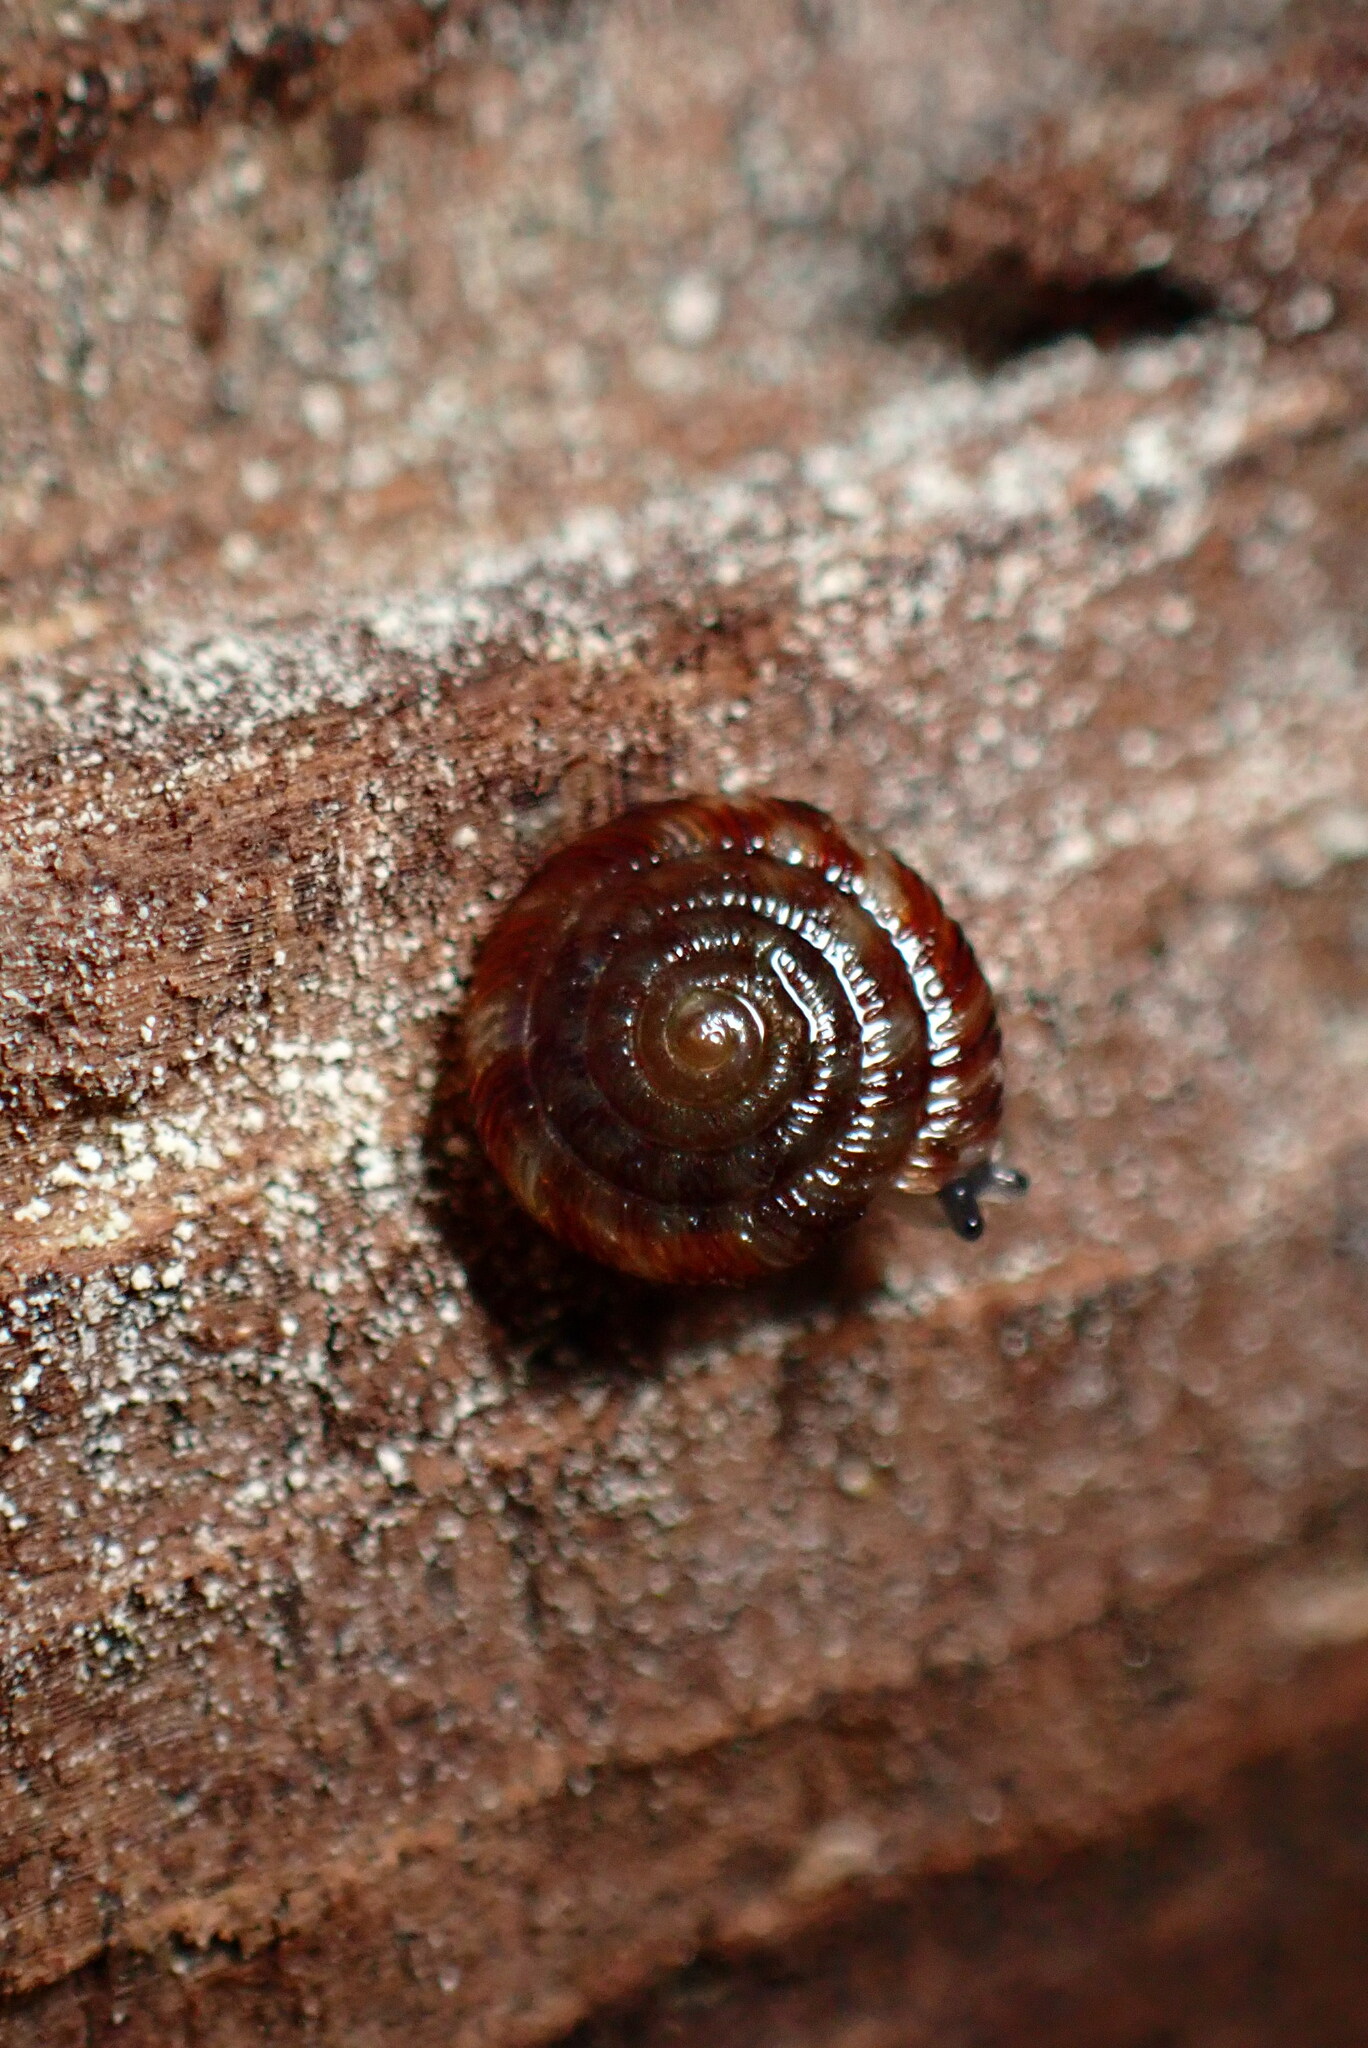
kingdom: Animalia
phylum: Mollusca
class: Gastropoda
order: Stylommatophora
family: Discidae
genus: Discus
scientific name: Discus rotundatus
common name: Rounded snail
